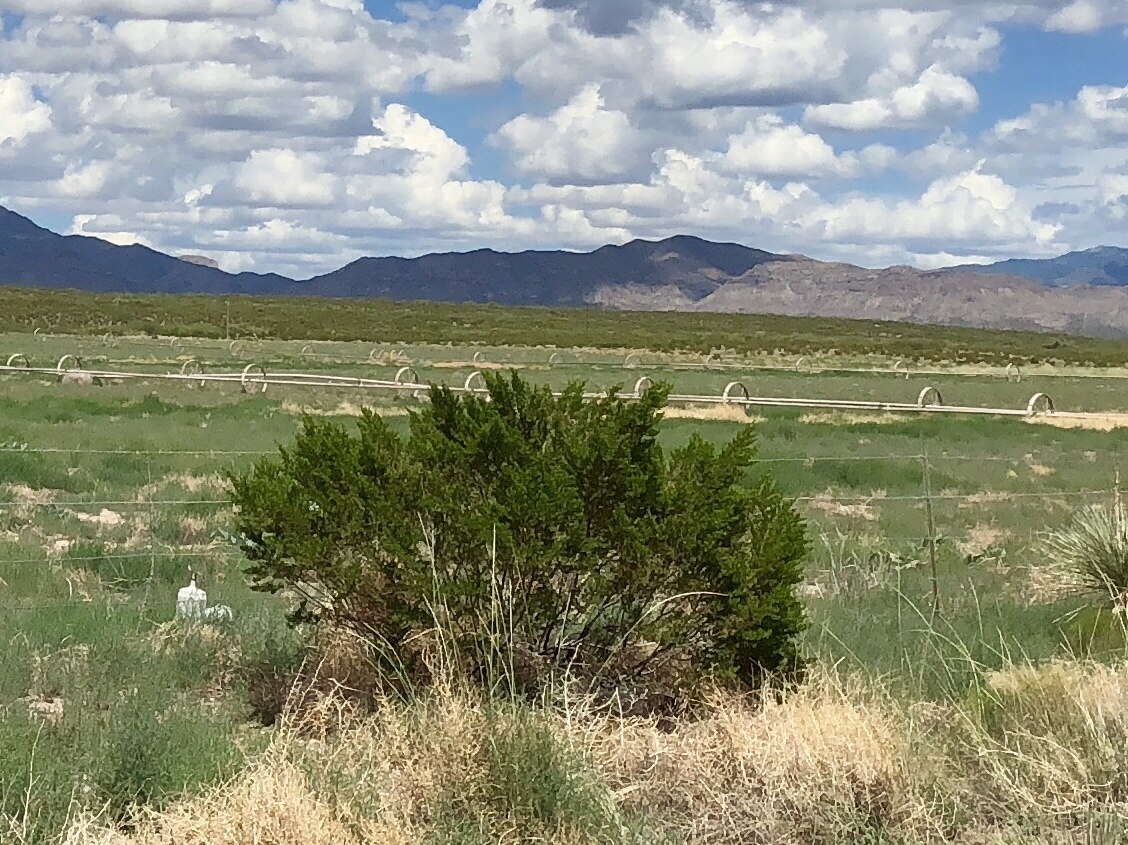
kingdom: Plantae
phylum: Tracheophyta
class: Magnoliopsida
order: Zygophyllales
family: Zygophyllaceae
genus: Larrea
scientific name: Larrea tridentata
